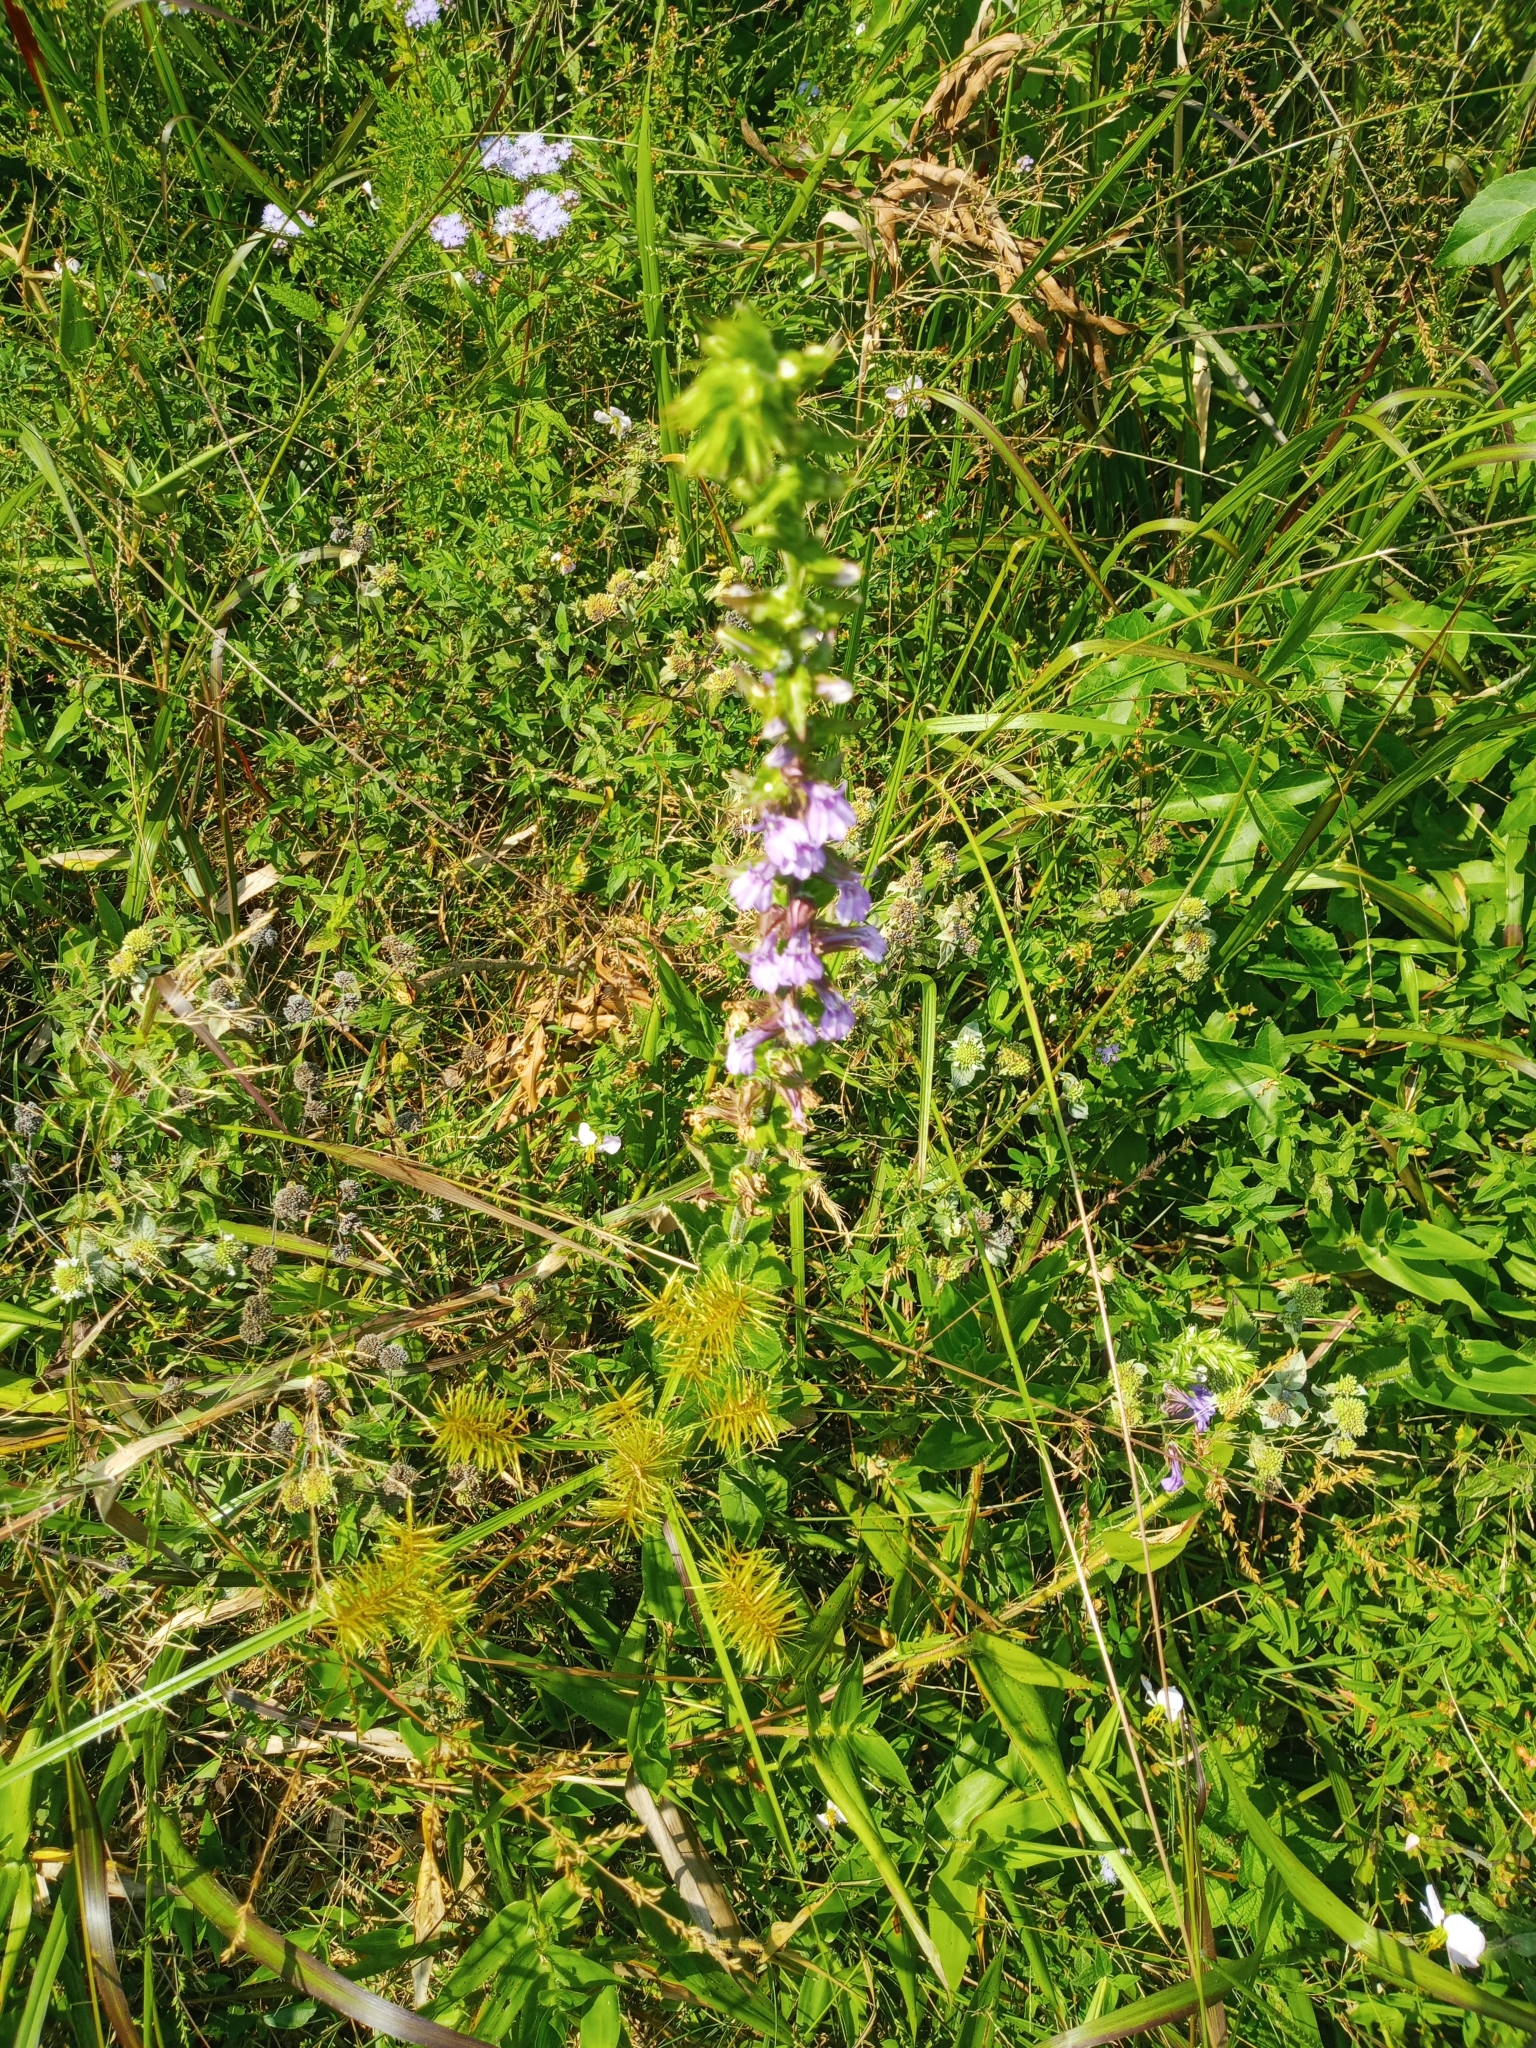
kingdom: Plantae
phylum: Tracheophyta
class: Magnoliopsida
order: Asterales
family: Campanulaceae
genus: Lobelia
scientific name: Lobelia siphilitica
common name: Great lobelia
